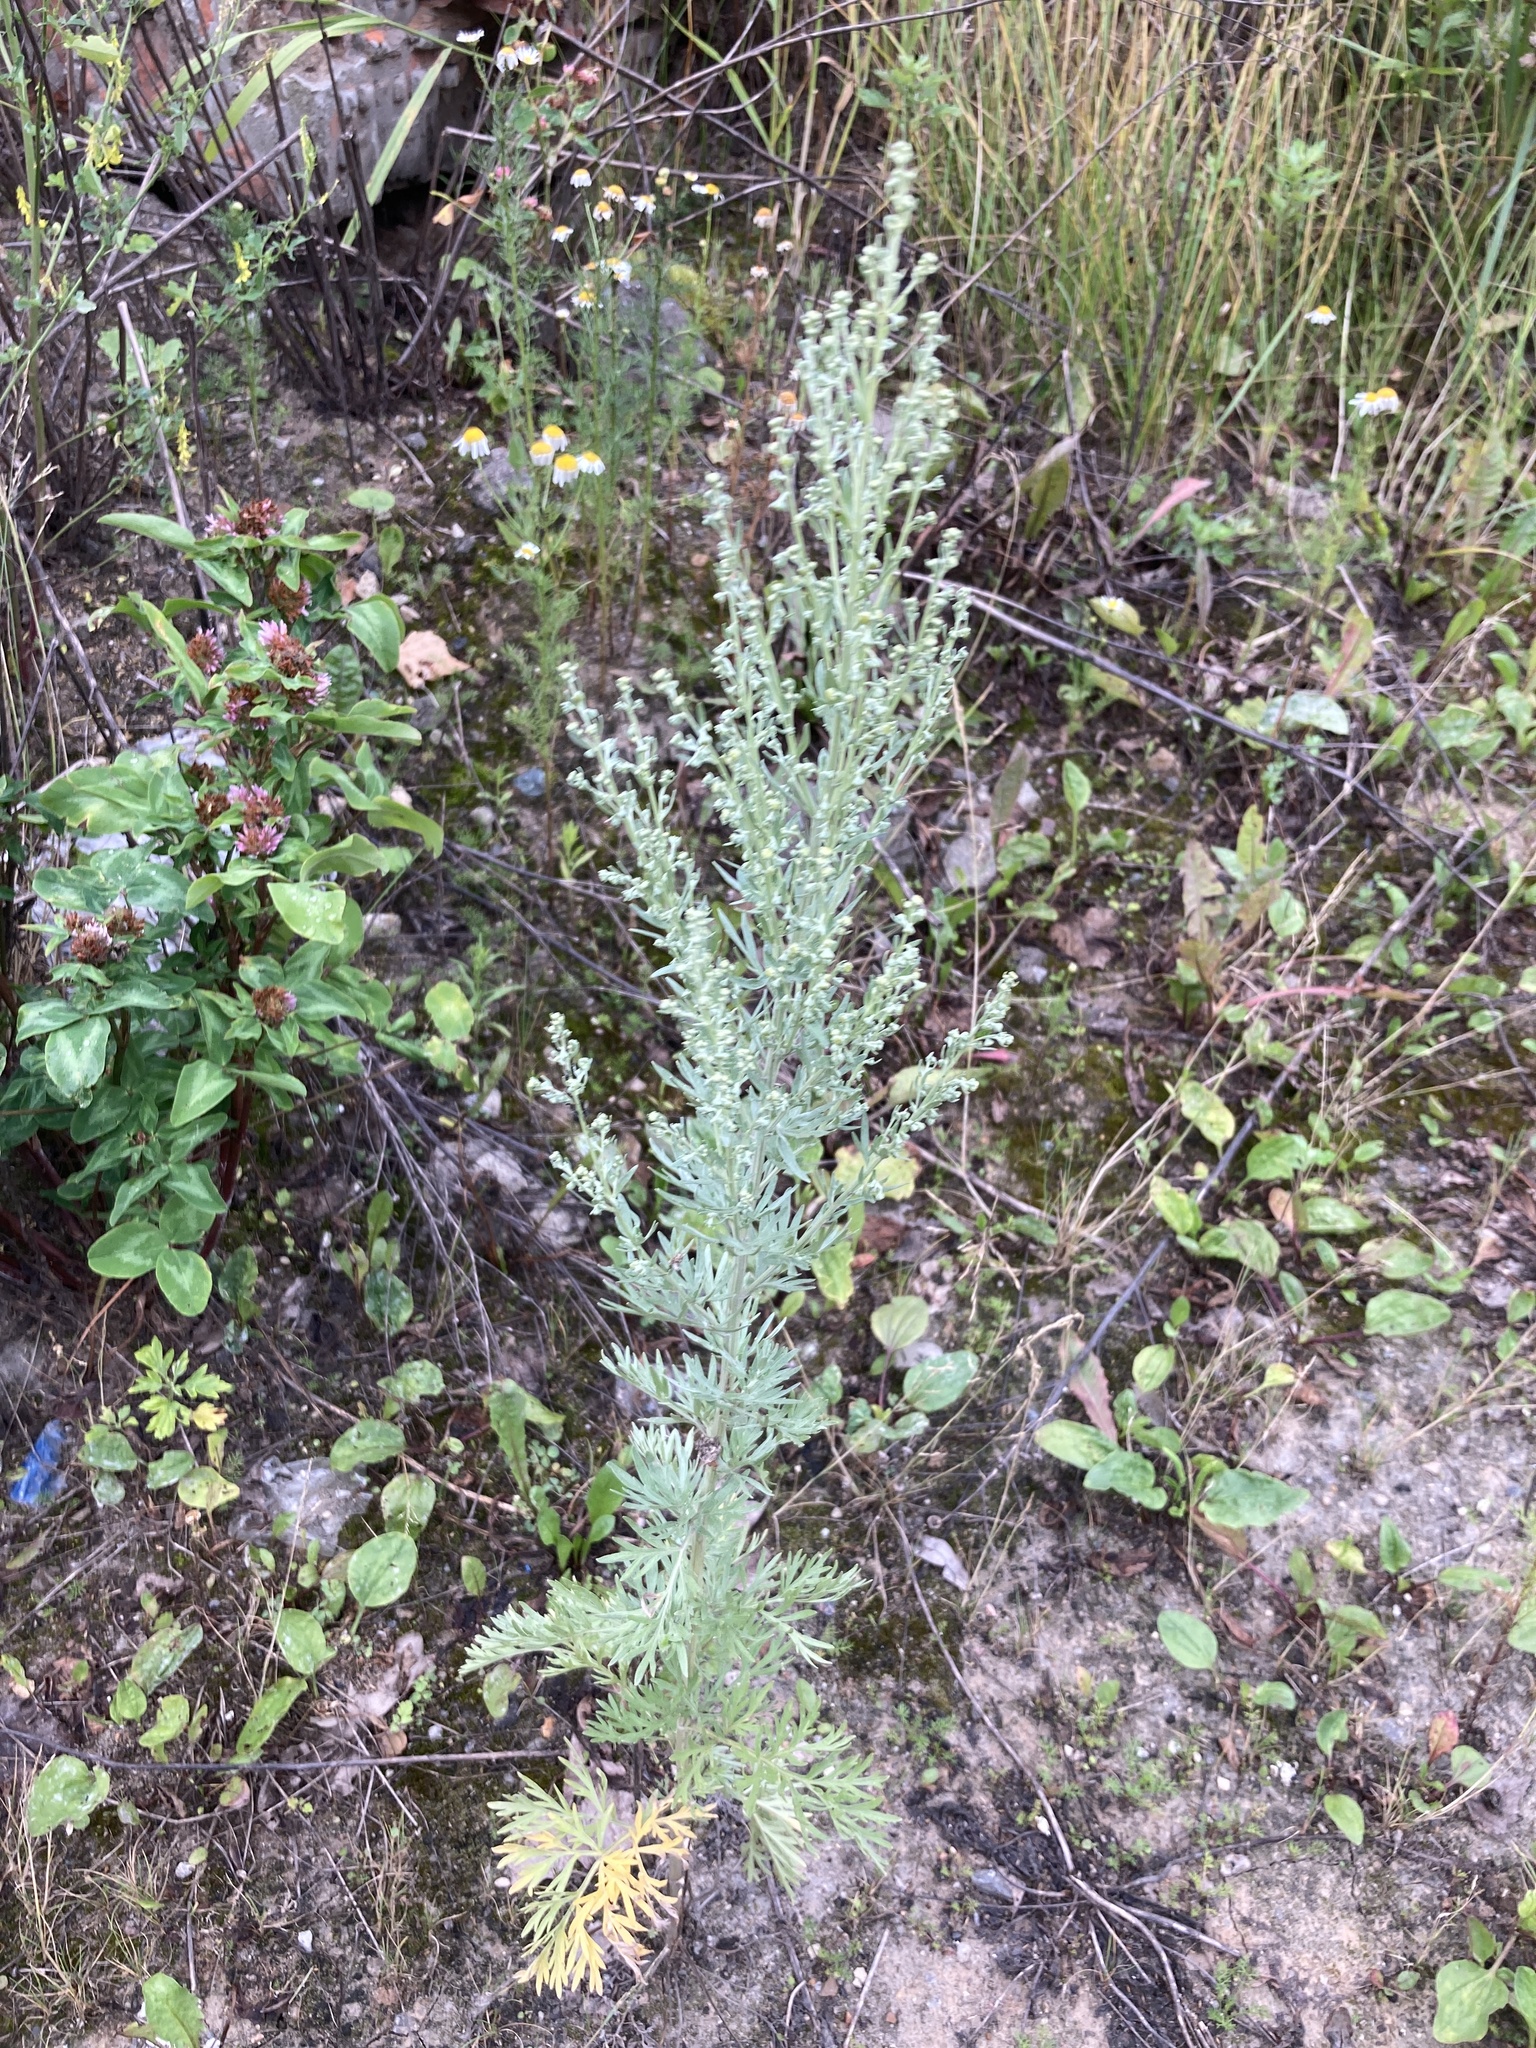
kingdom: Plantae
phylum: Tracheophyta
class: Magnoliopsida
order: Asterales
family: Asteraceae
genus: Artemisia
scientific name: Artemisia absinthium
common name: Wormwood
